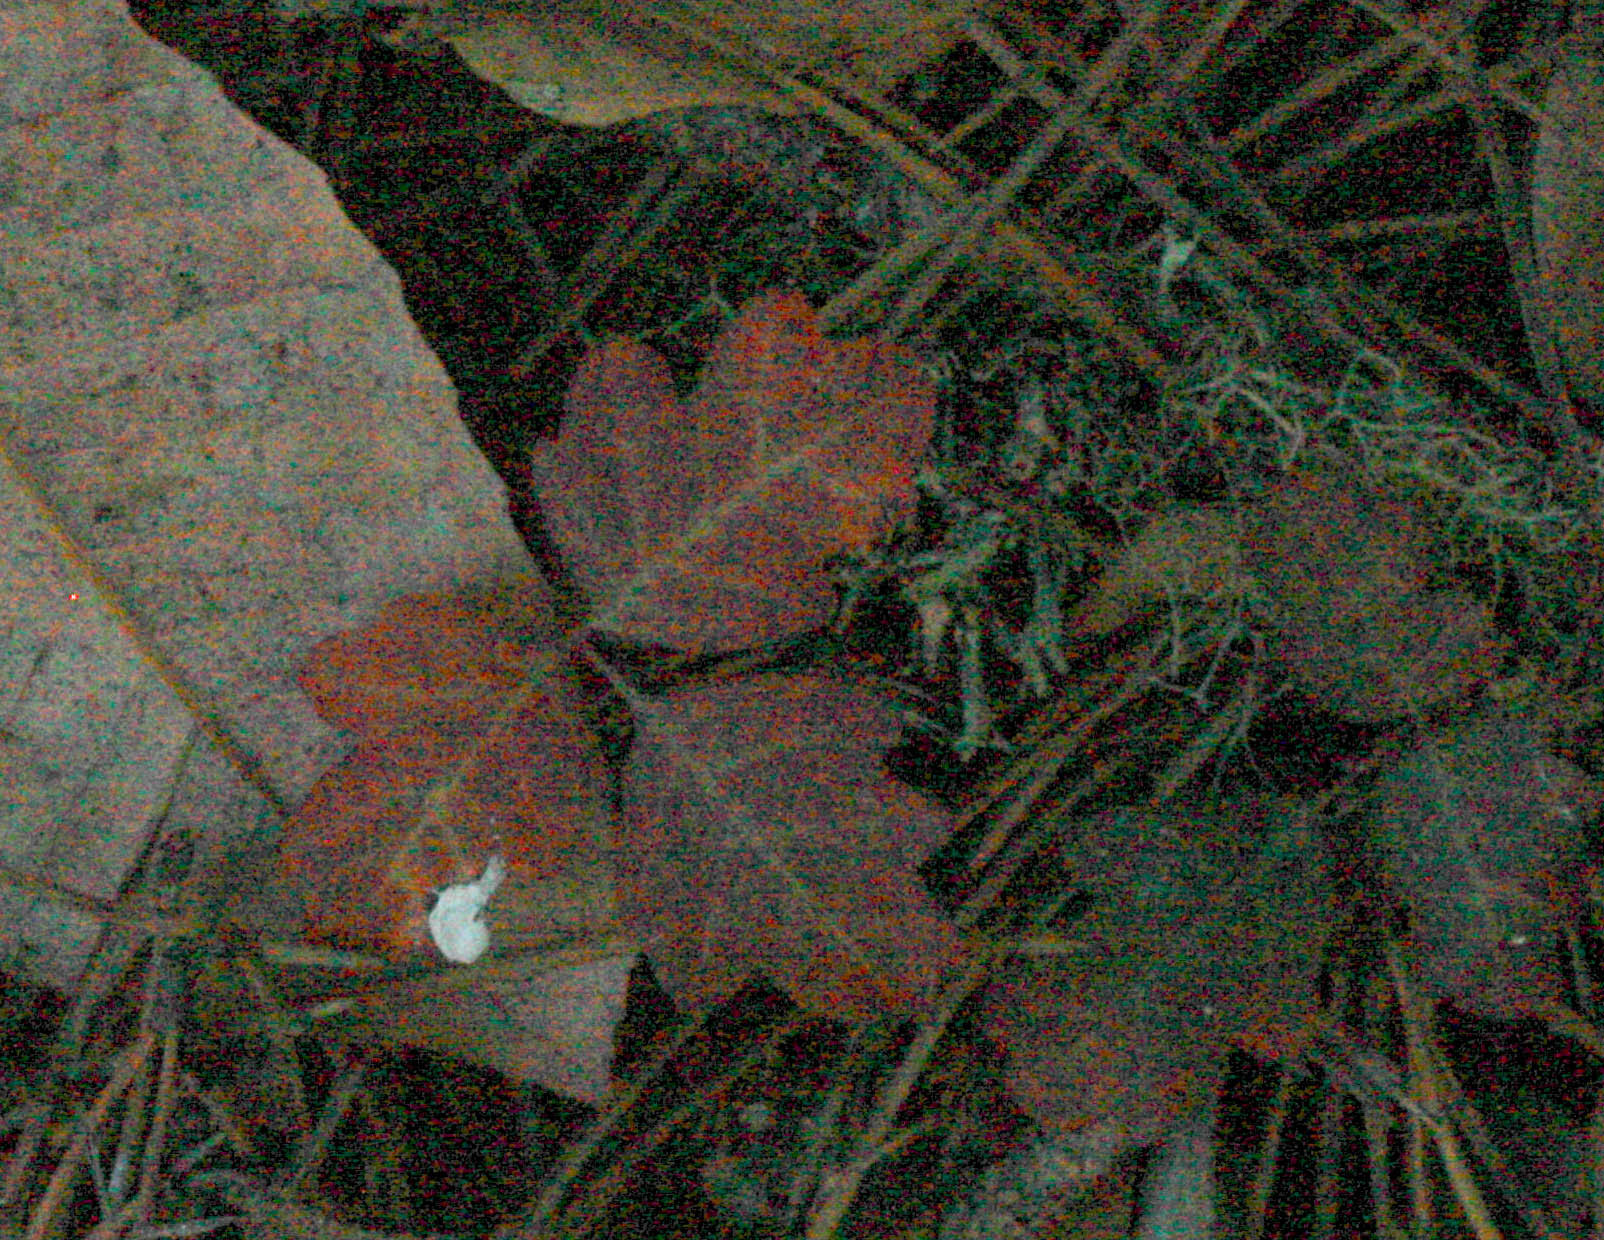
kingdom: Plantae
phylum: Tracheophyta
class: Magnoliopsida
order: Sapindales
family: Anacardiaceae
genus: Toxicodendron
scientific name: Toxicodendron diversilobum
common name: Pacific poison-oak
